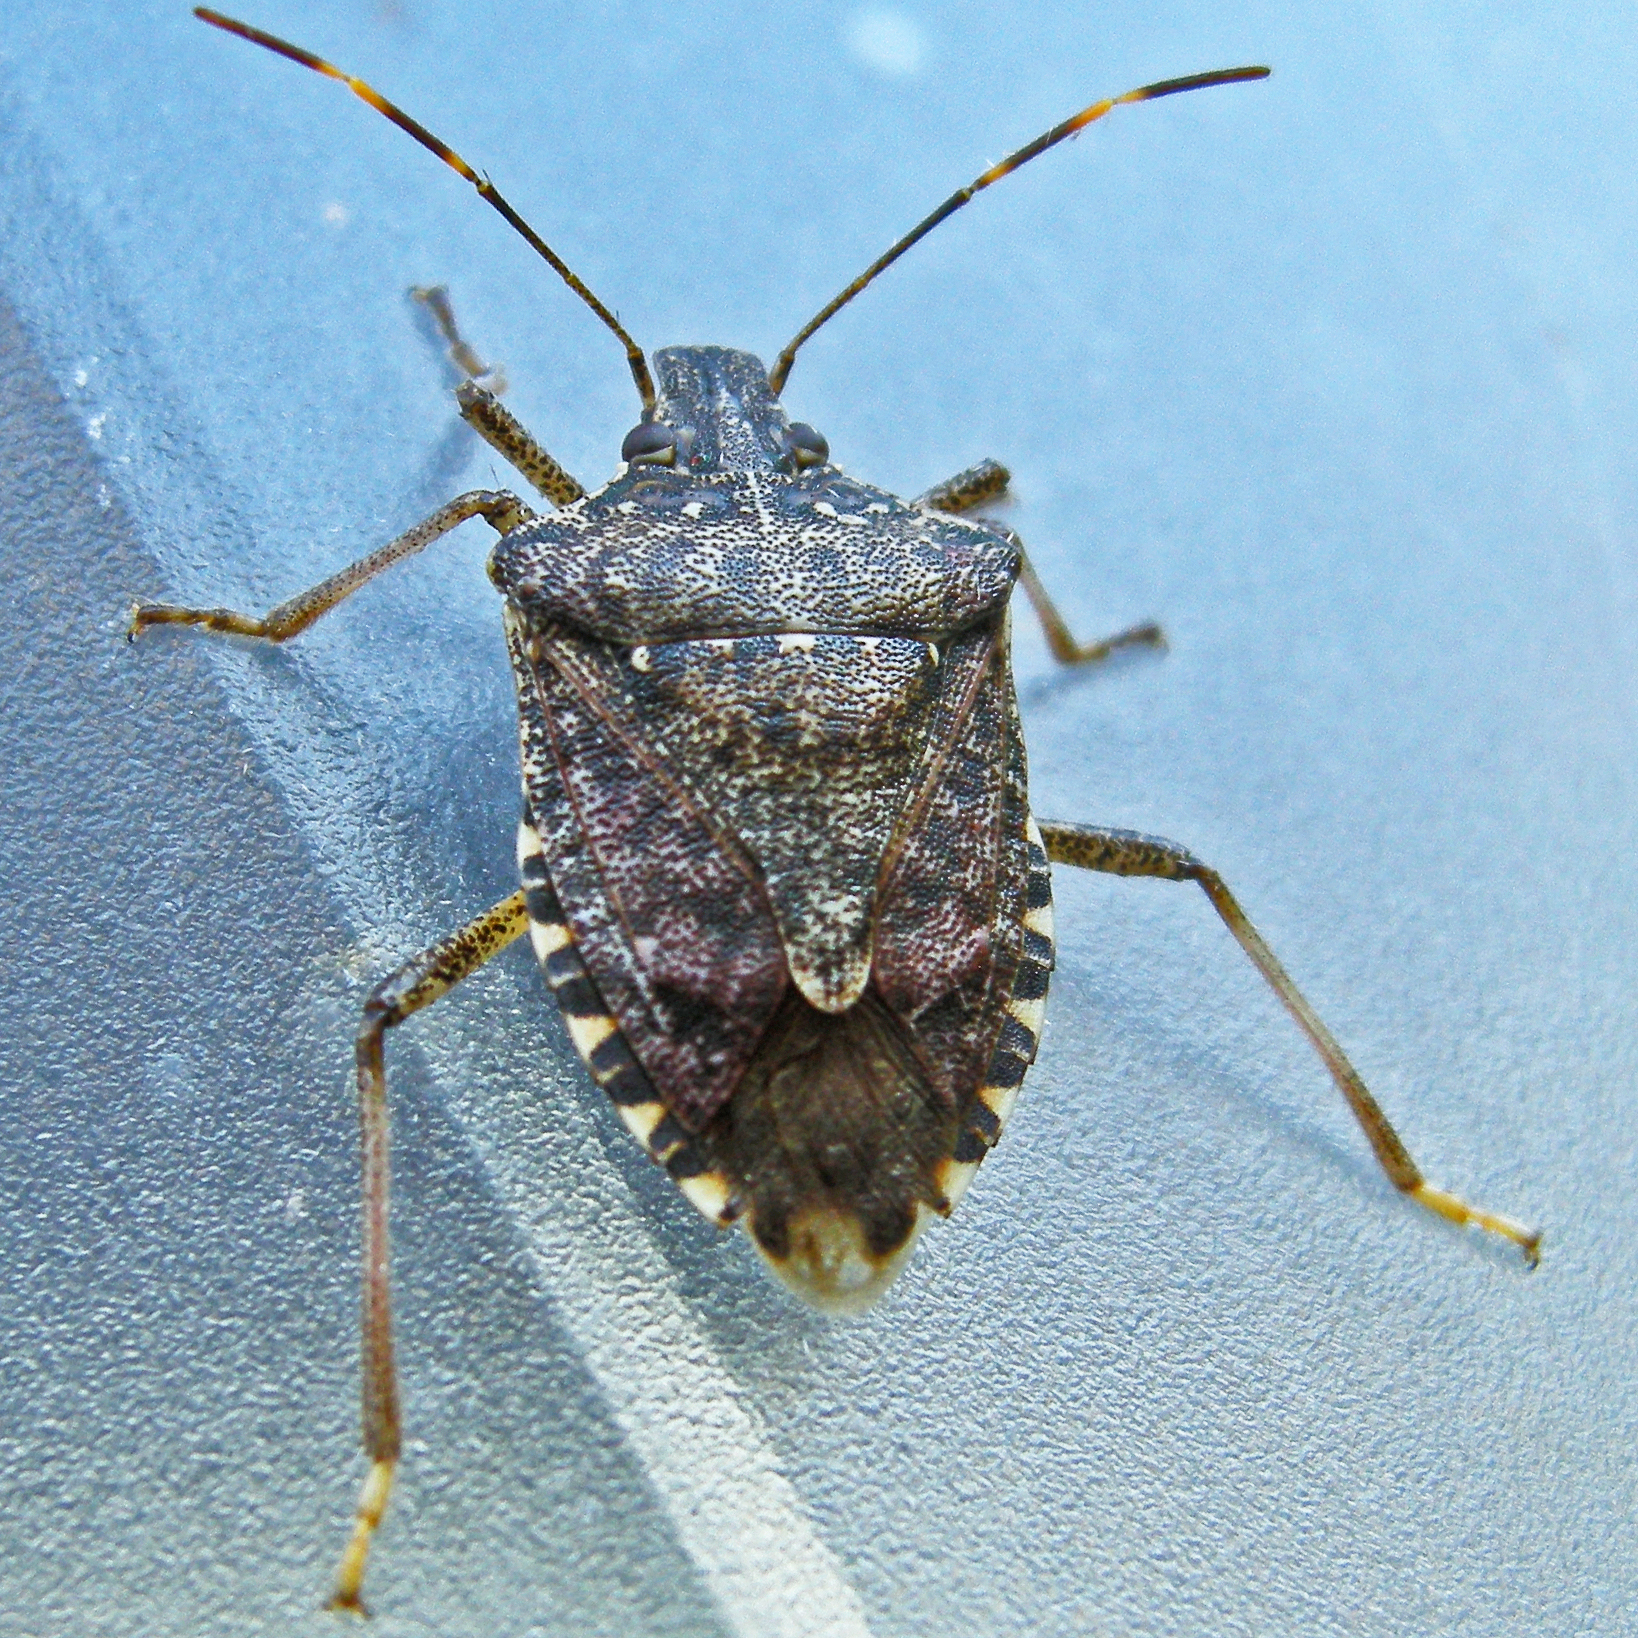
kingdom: Animalia
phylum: Arthropoda
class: Insecta
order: Hemiptera
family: Pentatomidae
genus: Halyomorpha
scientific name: Halyomorpha halys
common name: Brown marmorated stink bug
